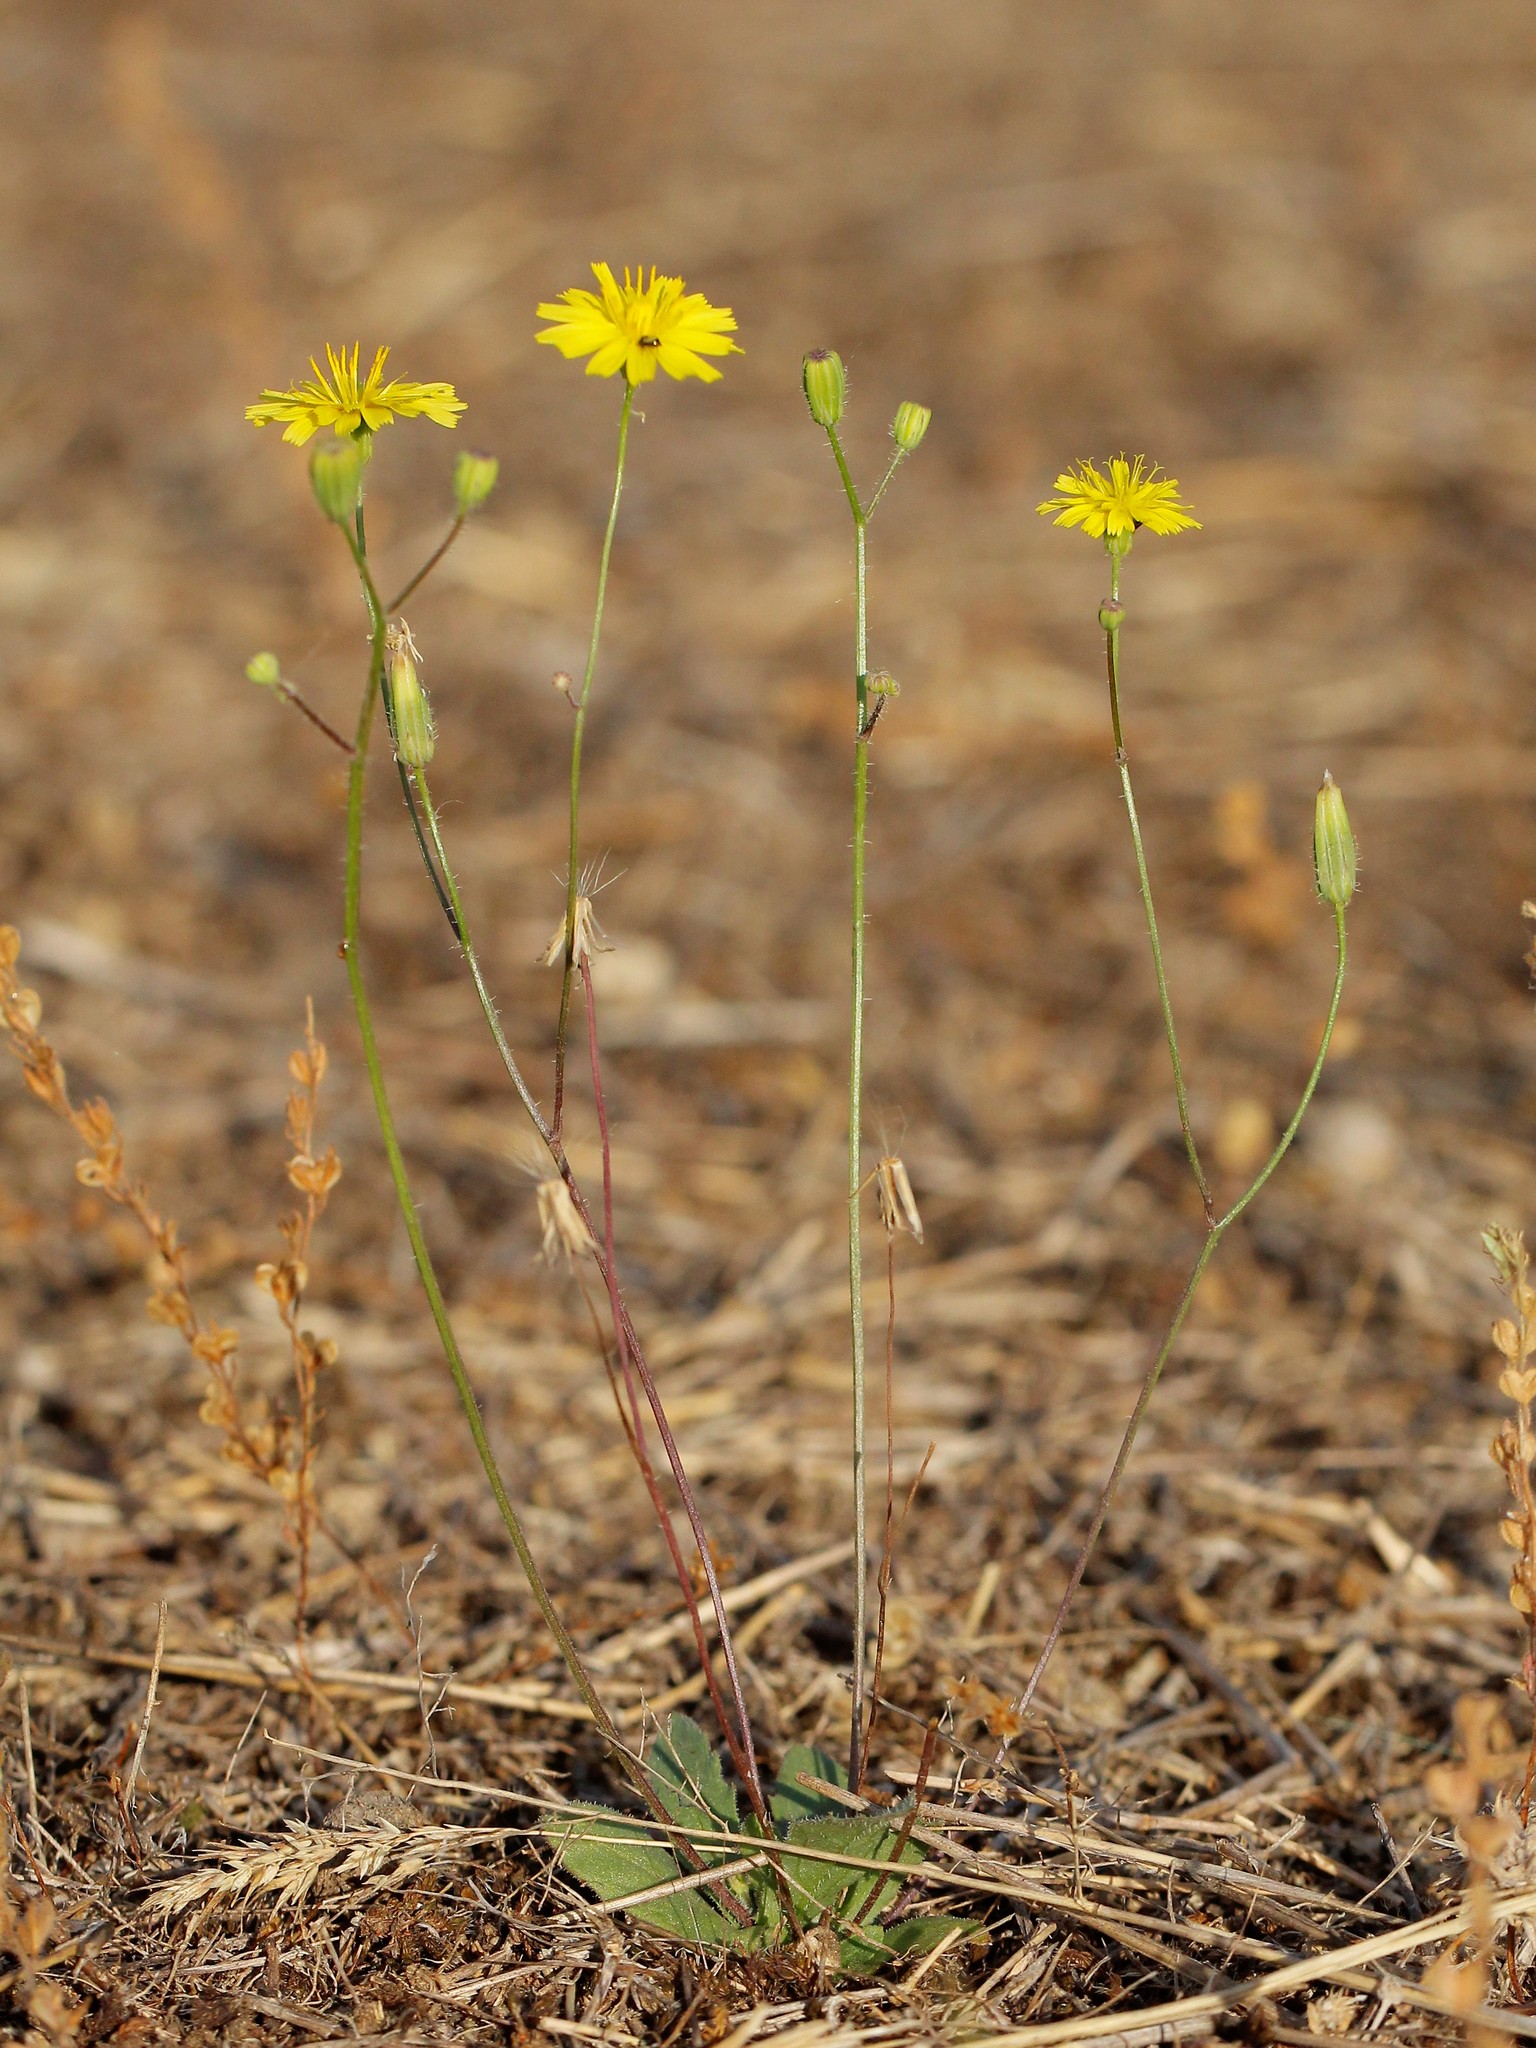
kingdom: Plantae
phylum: Tracheophyta
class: Magnoliopsida
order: Asterales
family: Asteraceae
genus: Crepis
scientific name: Crepis sancta
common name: Hawk's-beard
